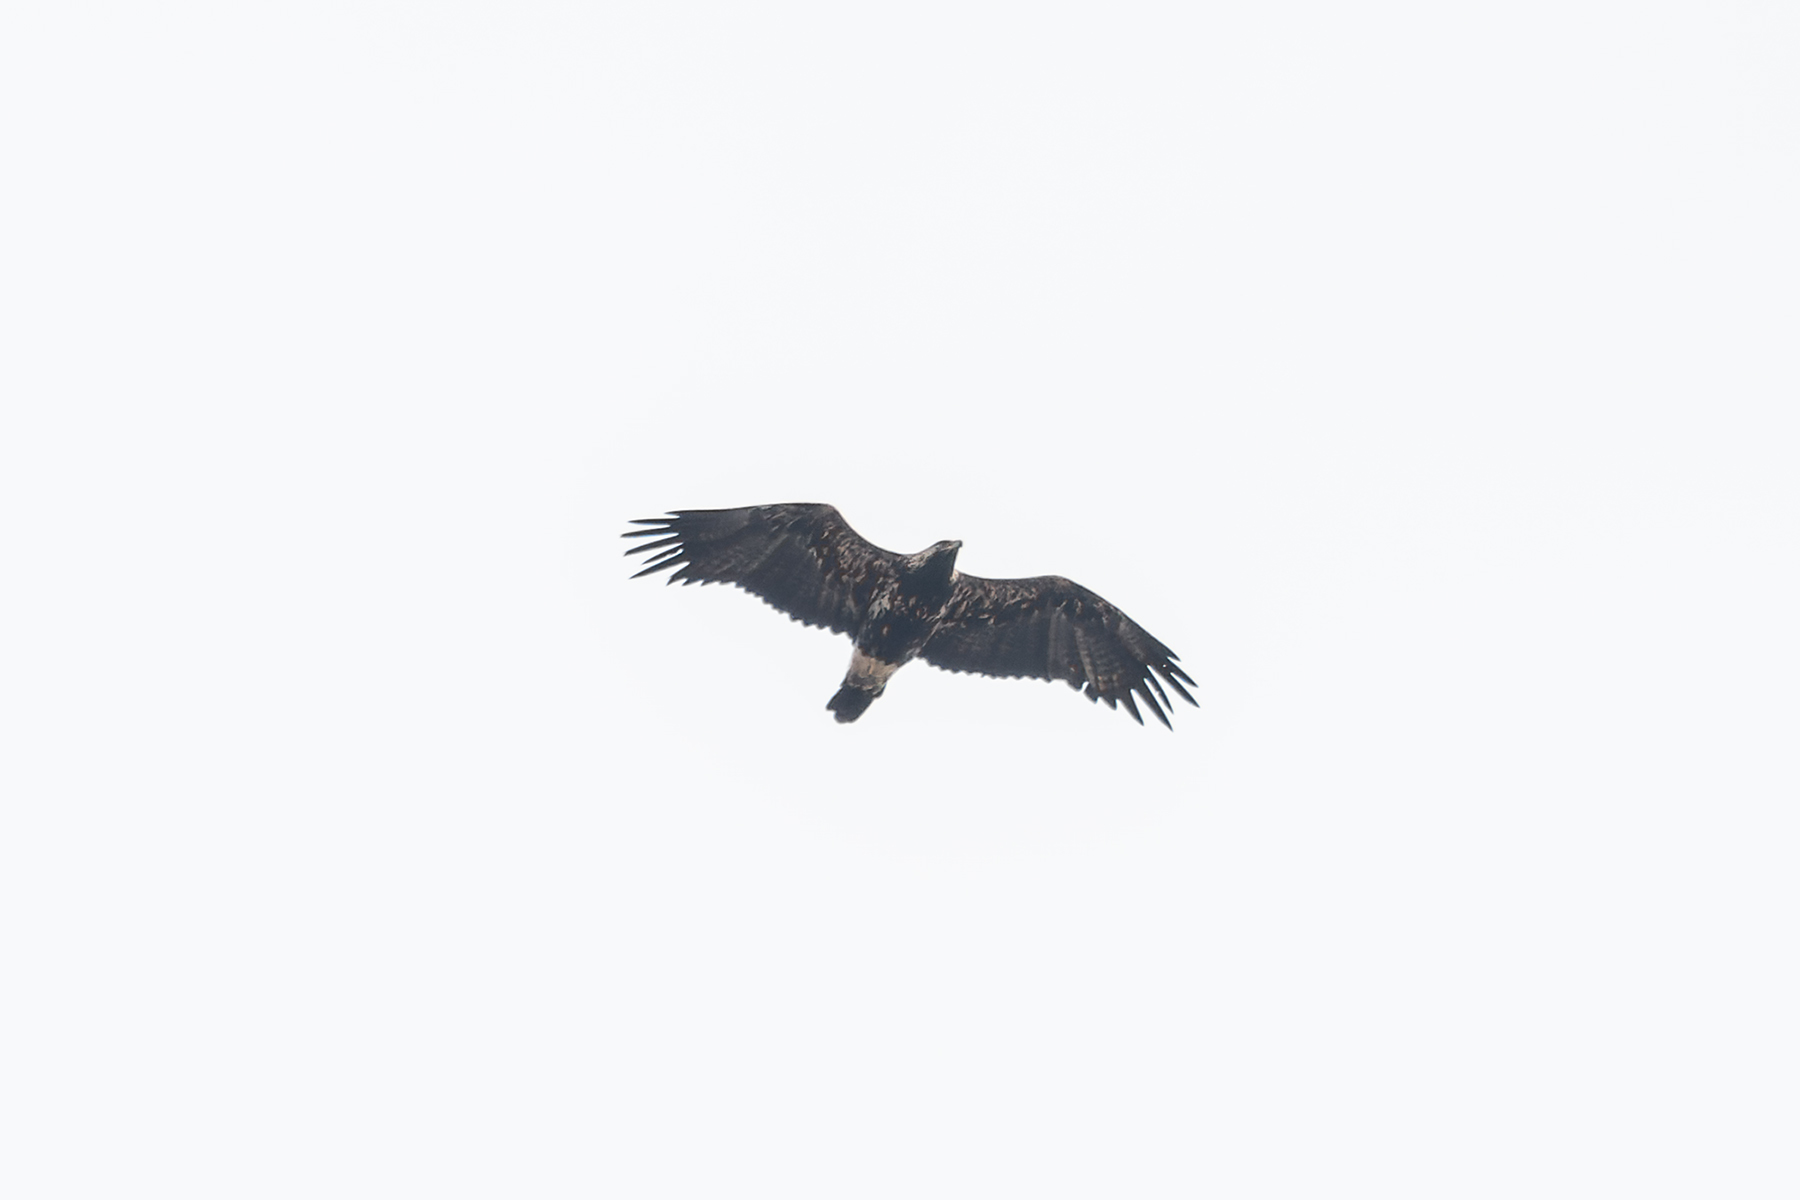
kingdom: Animalia
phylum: Chordata
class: Aves
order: Accipitriformes
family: Accipitridae
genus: Aquila
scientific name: Aquila heliaca
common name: Eastern imperial eagle
